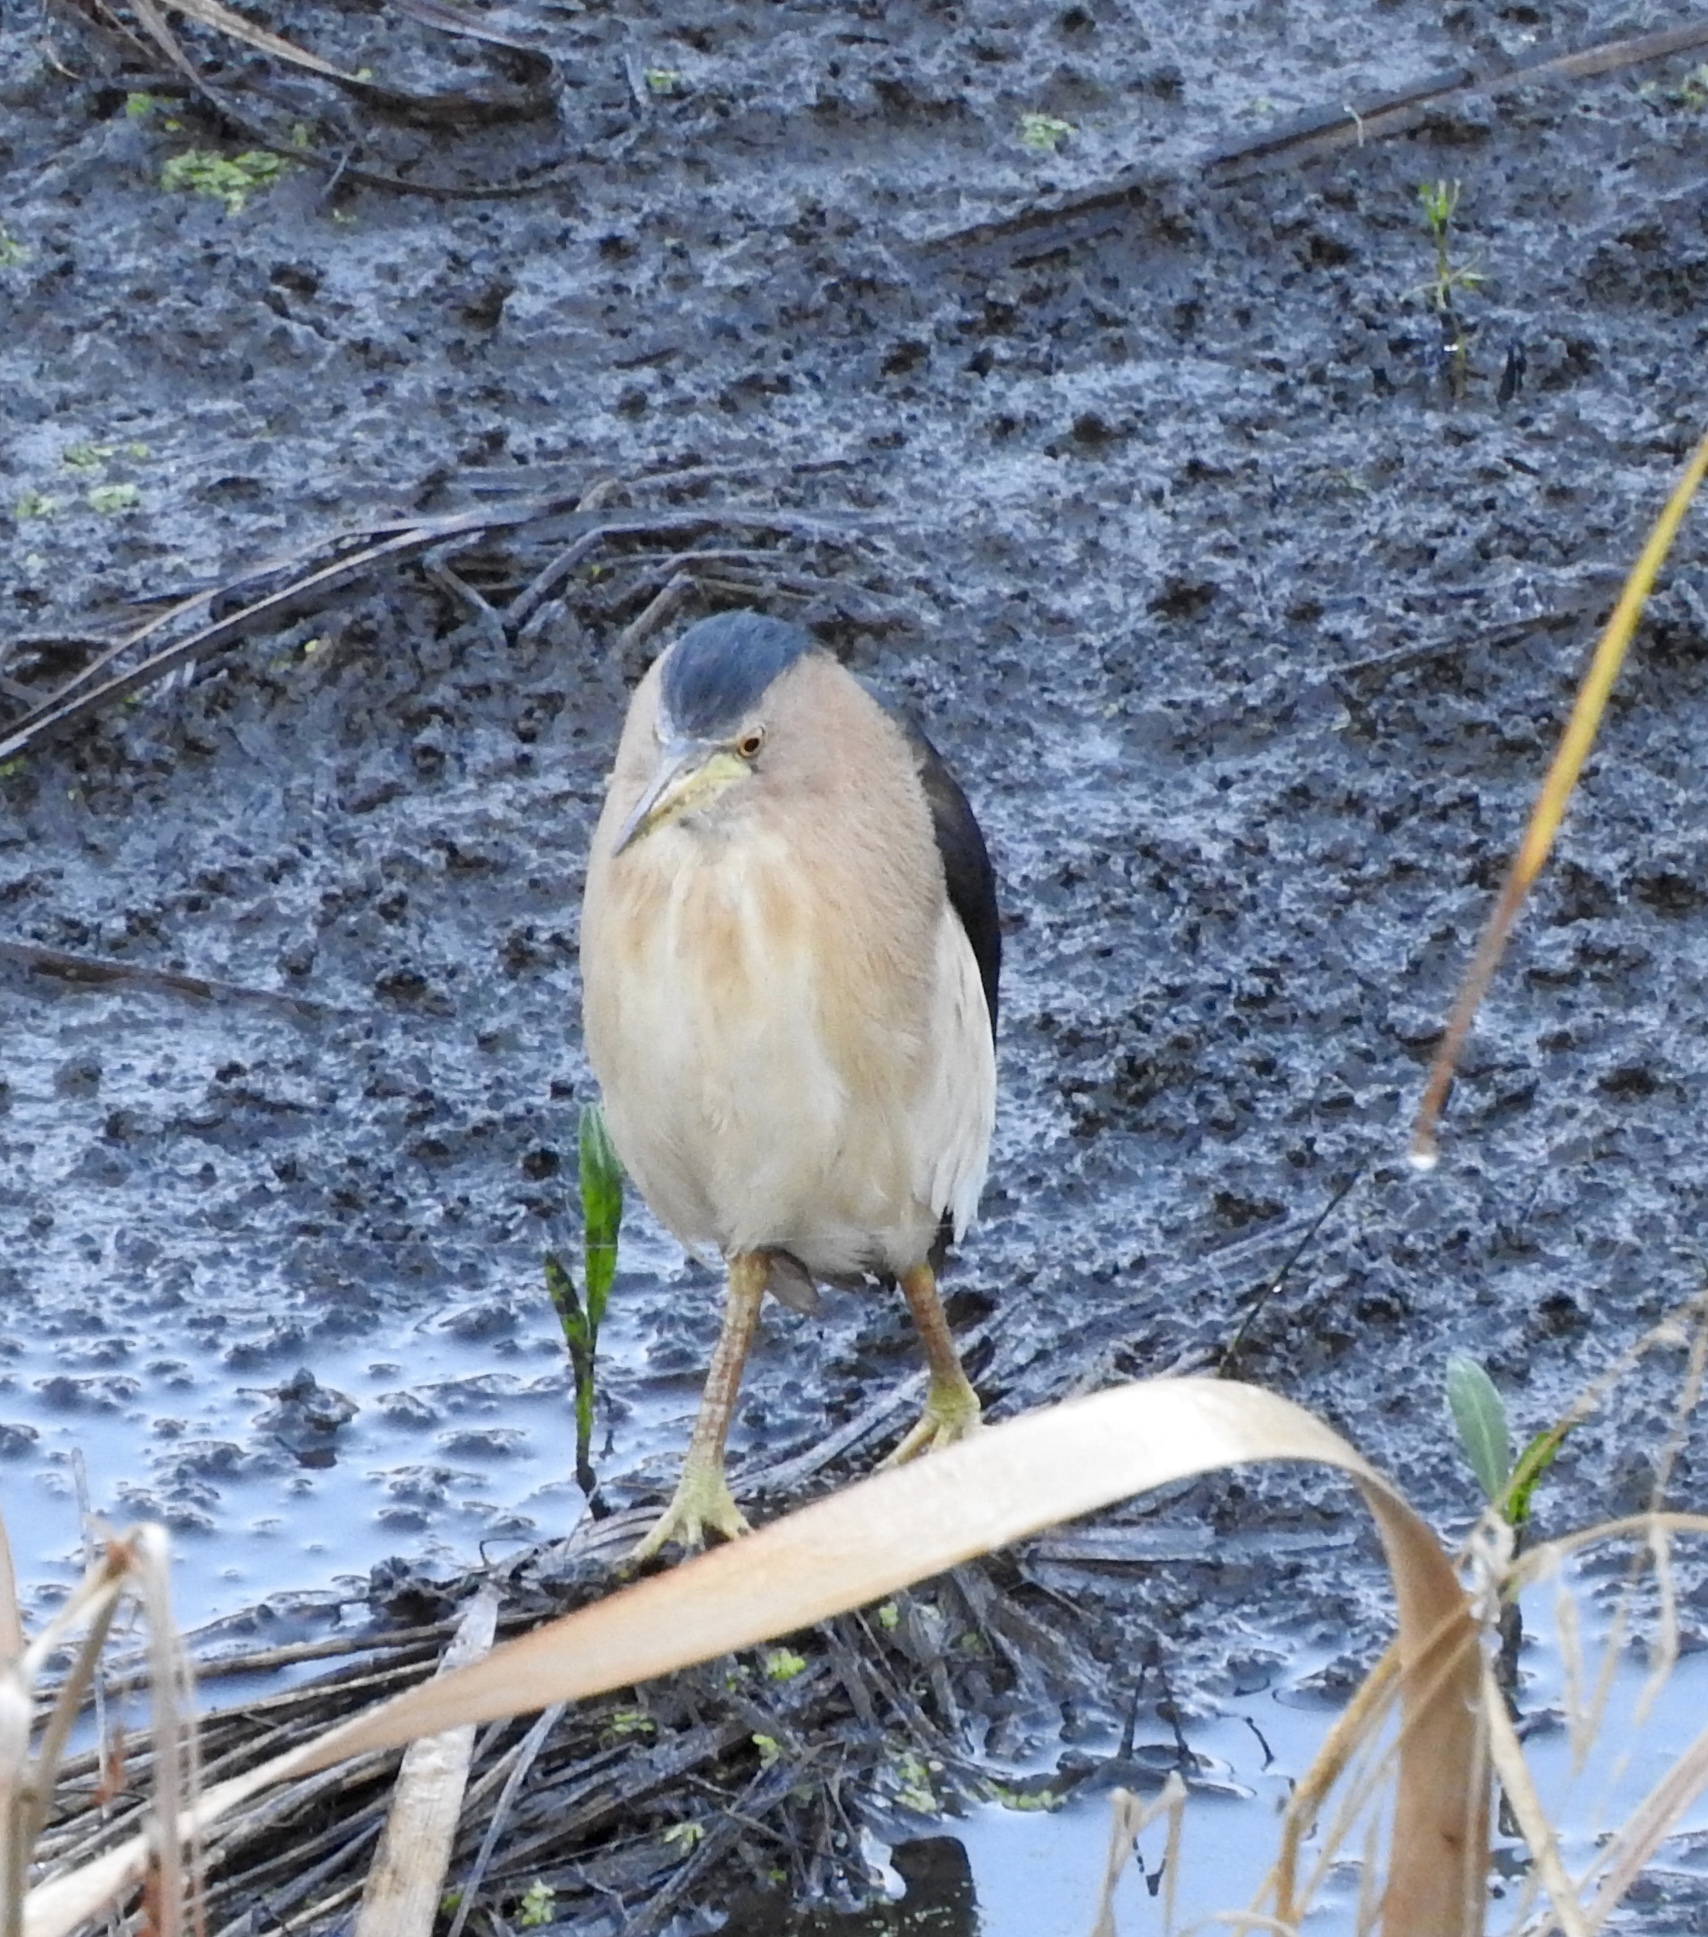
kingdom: Animalia
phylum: Chordata
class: Aves
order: Pelecaniformes
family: Ardeidae
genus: Ixobrychus
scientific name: Ixobrychus minutus
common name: Little bittern
